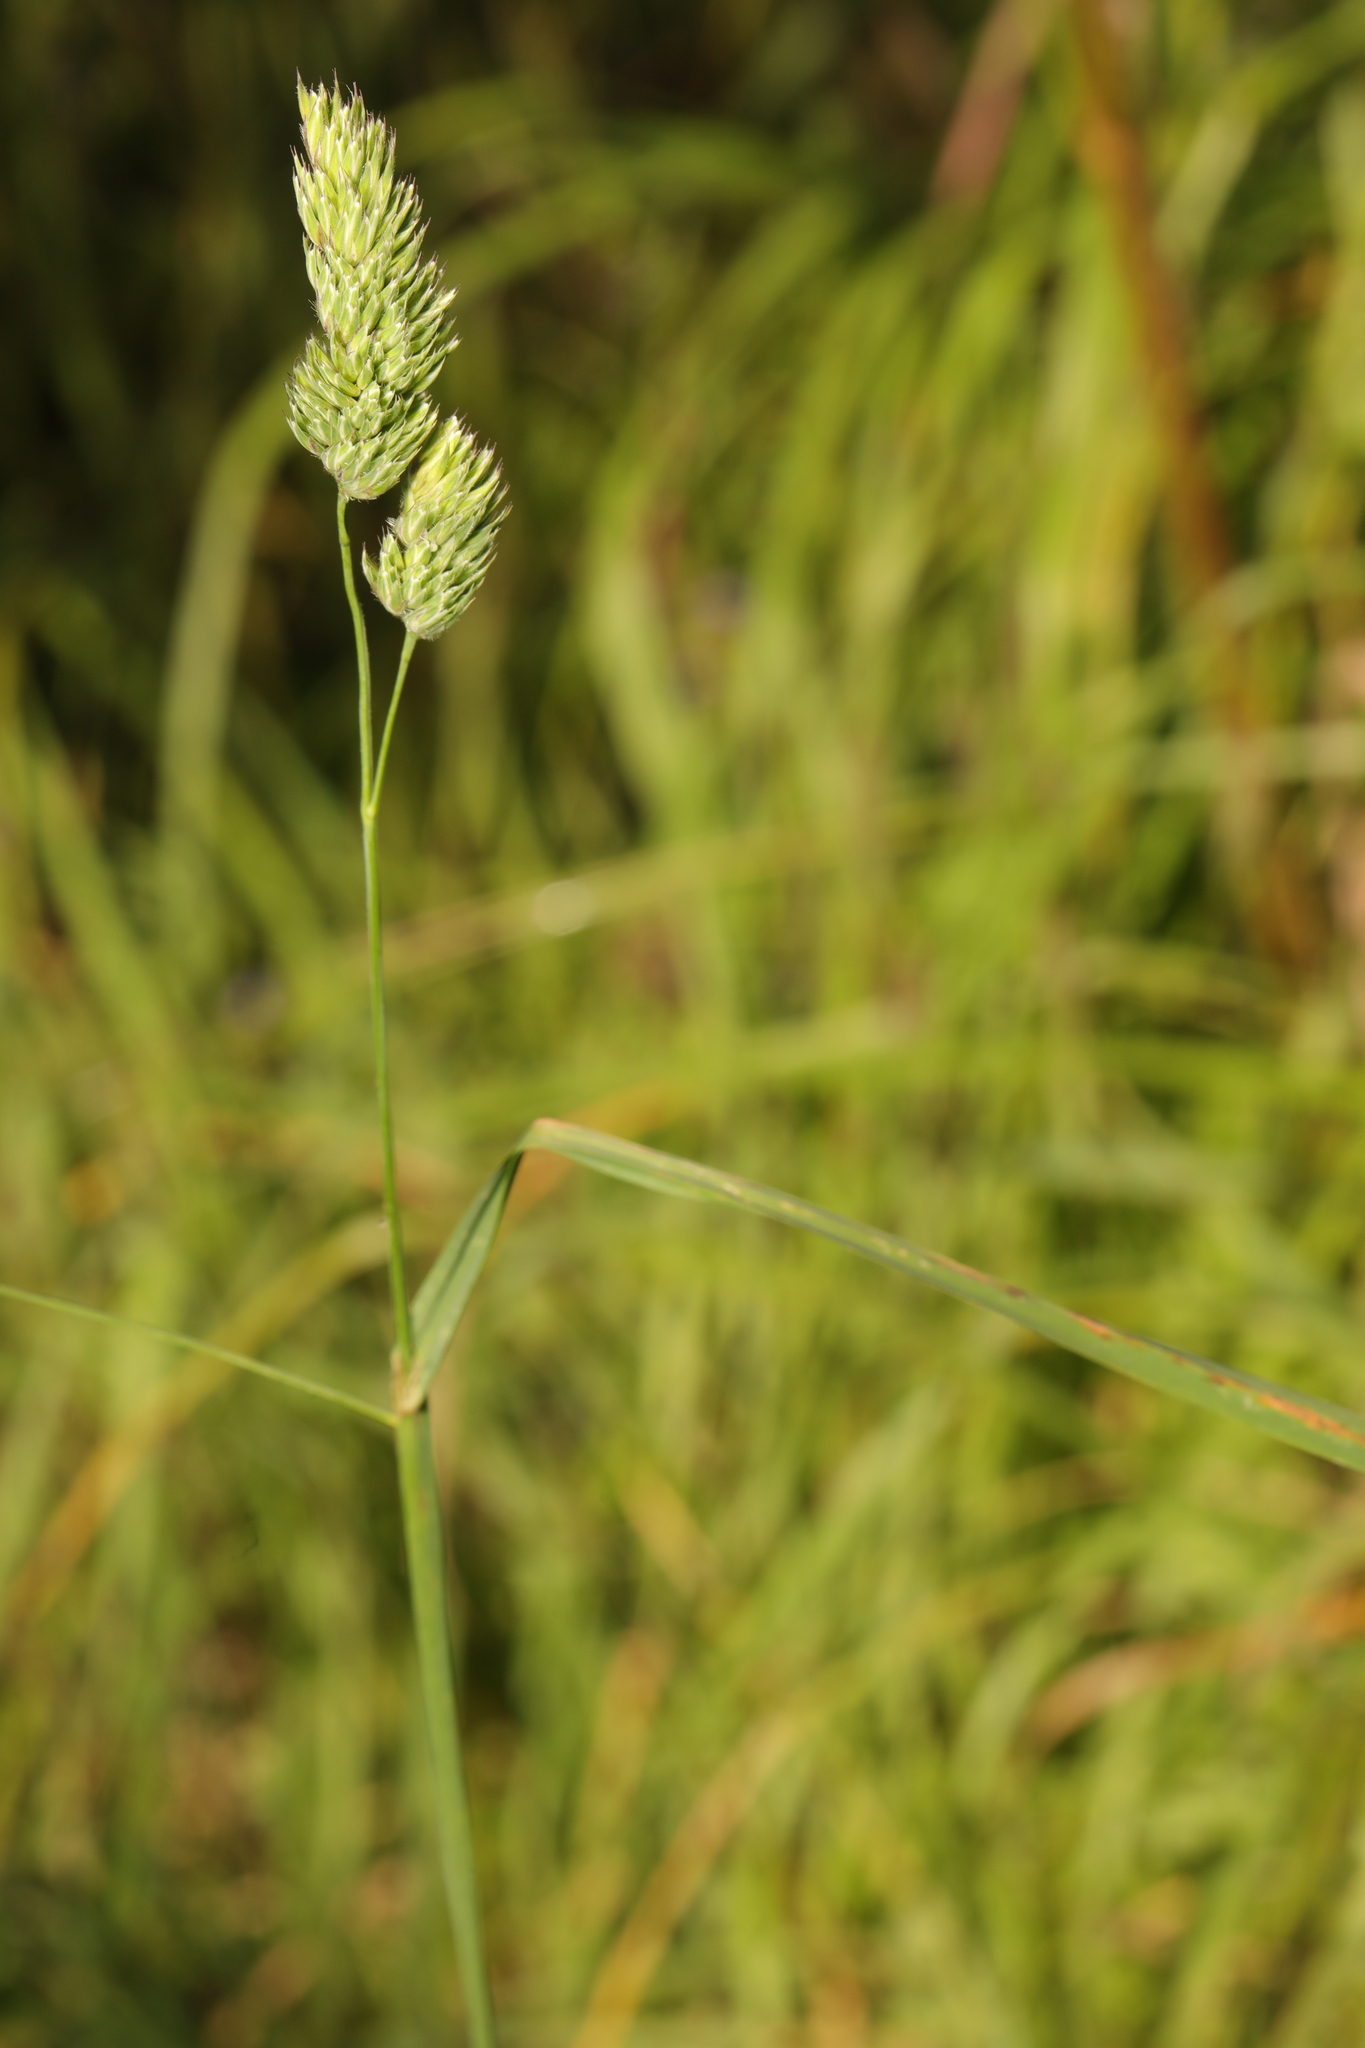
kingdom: Plantae
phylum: Tracheophyta
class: Liliopsida
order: Poales
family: Poaceae
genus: Dactylis
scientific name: Dactylis glomerata
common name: Orchardgrass
